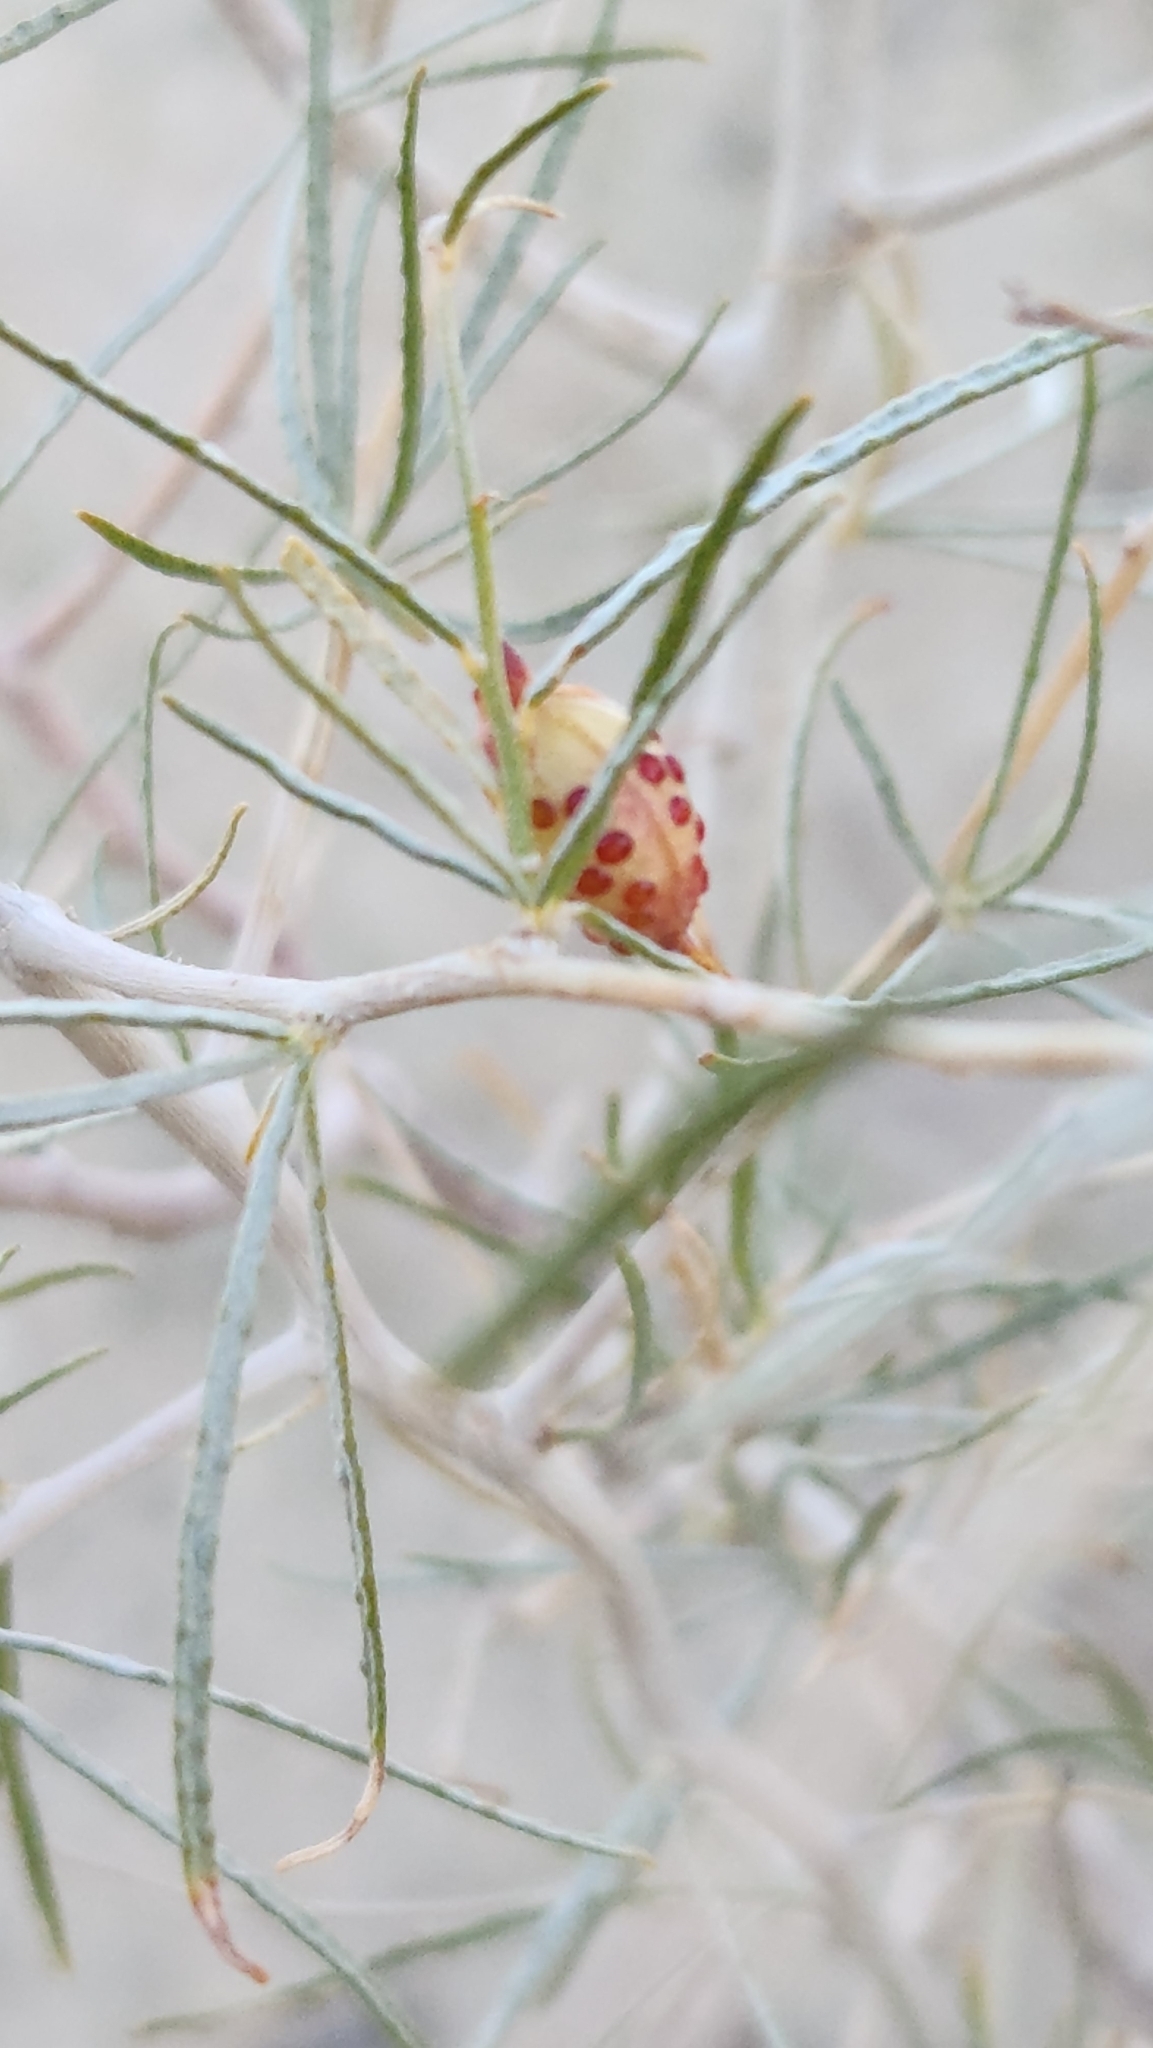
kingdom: Plantae
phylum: Tracheophyta
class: Magnoliopsida
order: Fabales
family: Fabaceae
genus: Psorothamnus
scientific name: Psorothamnus schottii
